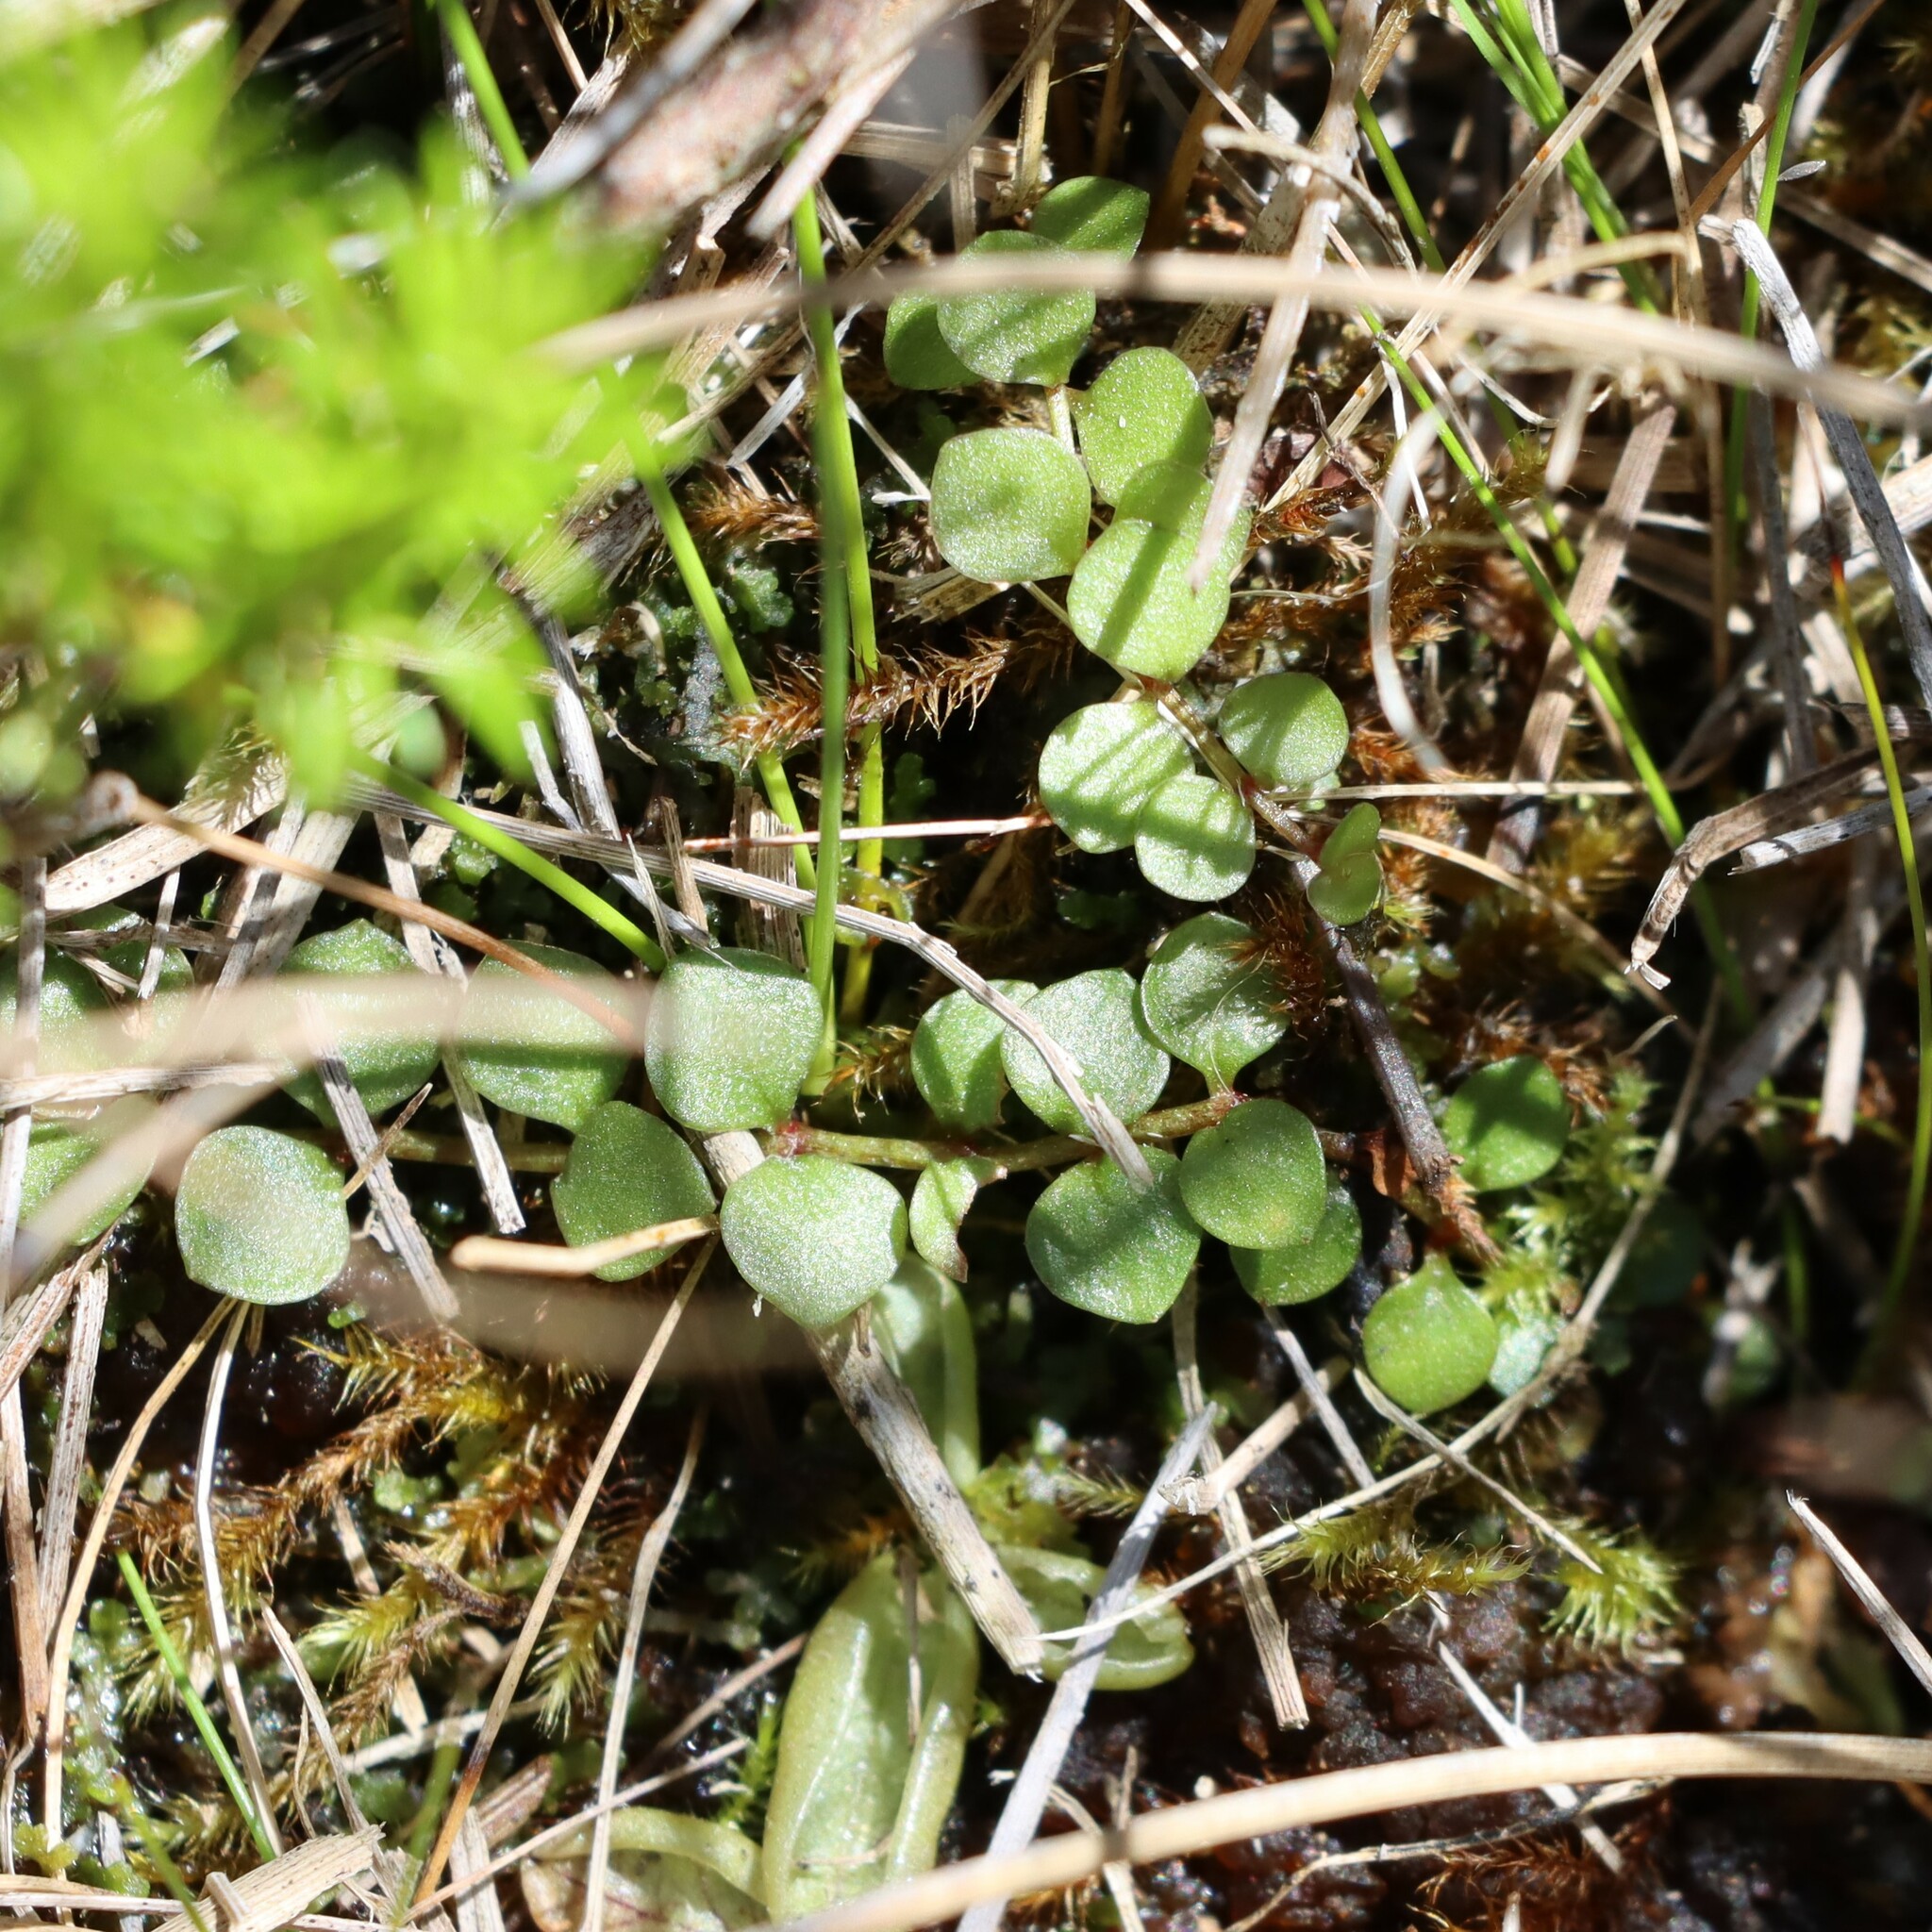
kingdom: Plantae
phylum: Tracheophyta
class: Magnoliopsida
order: Ericales
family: Primulaceae
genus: Lysimachia
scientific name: Lysimachia tenella
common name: European bog pimpernel
